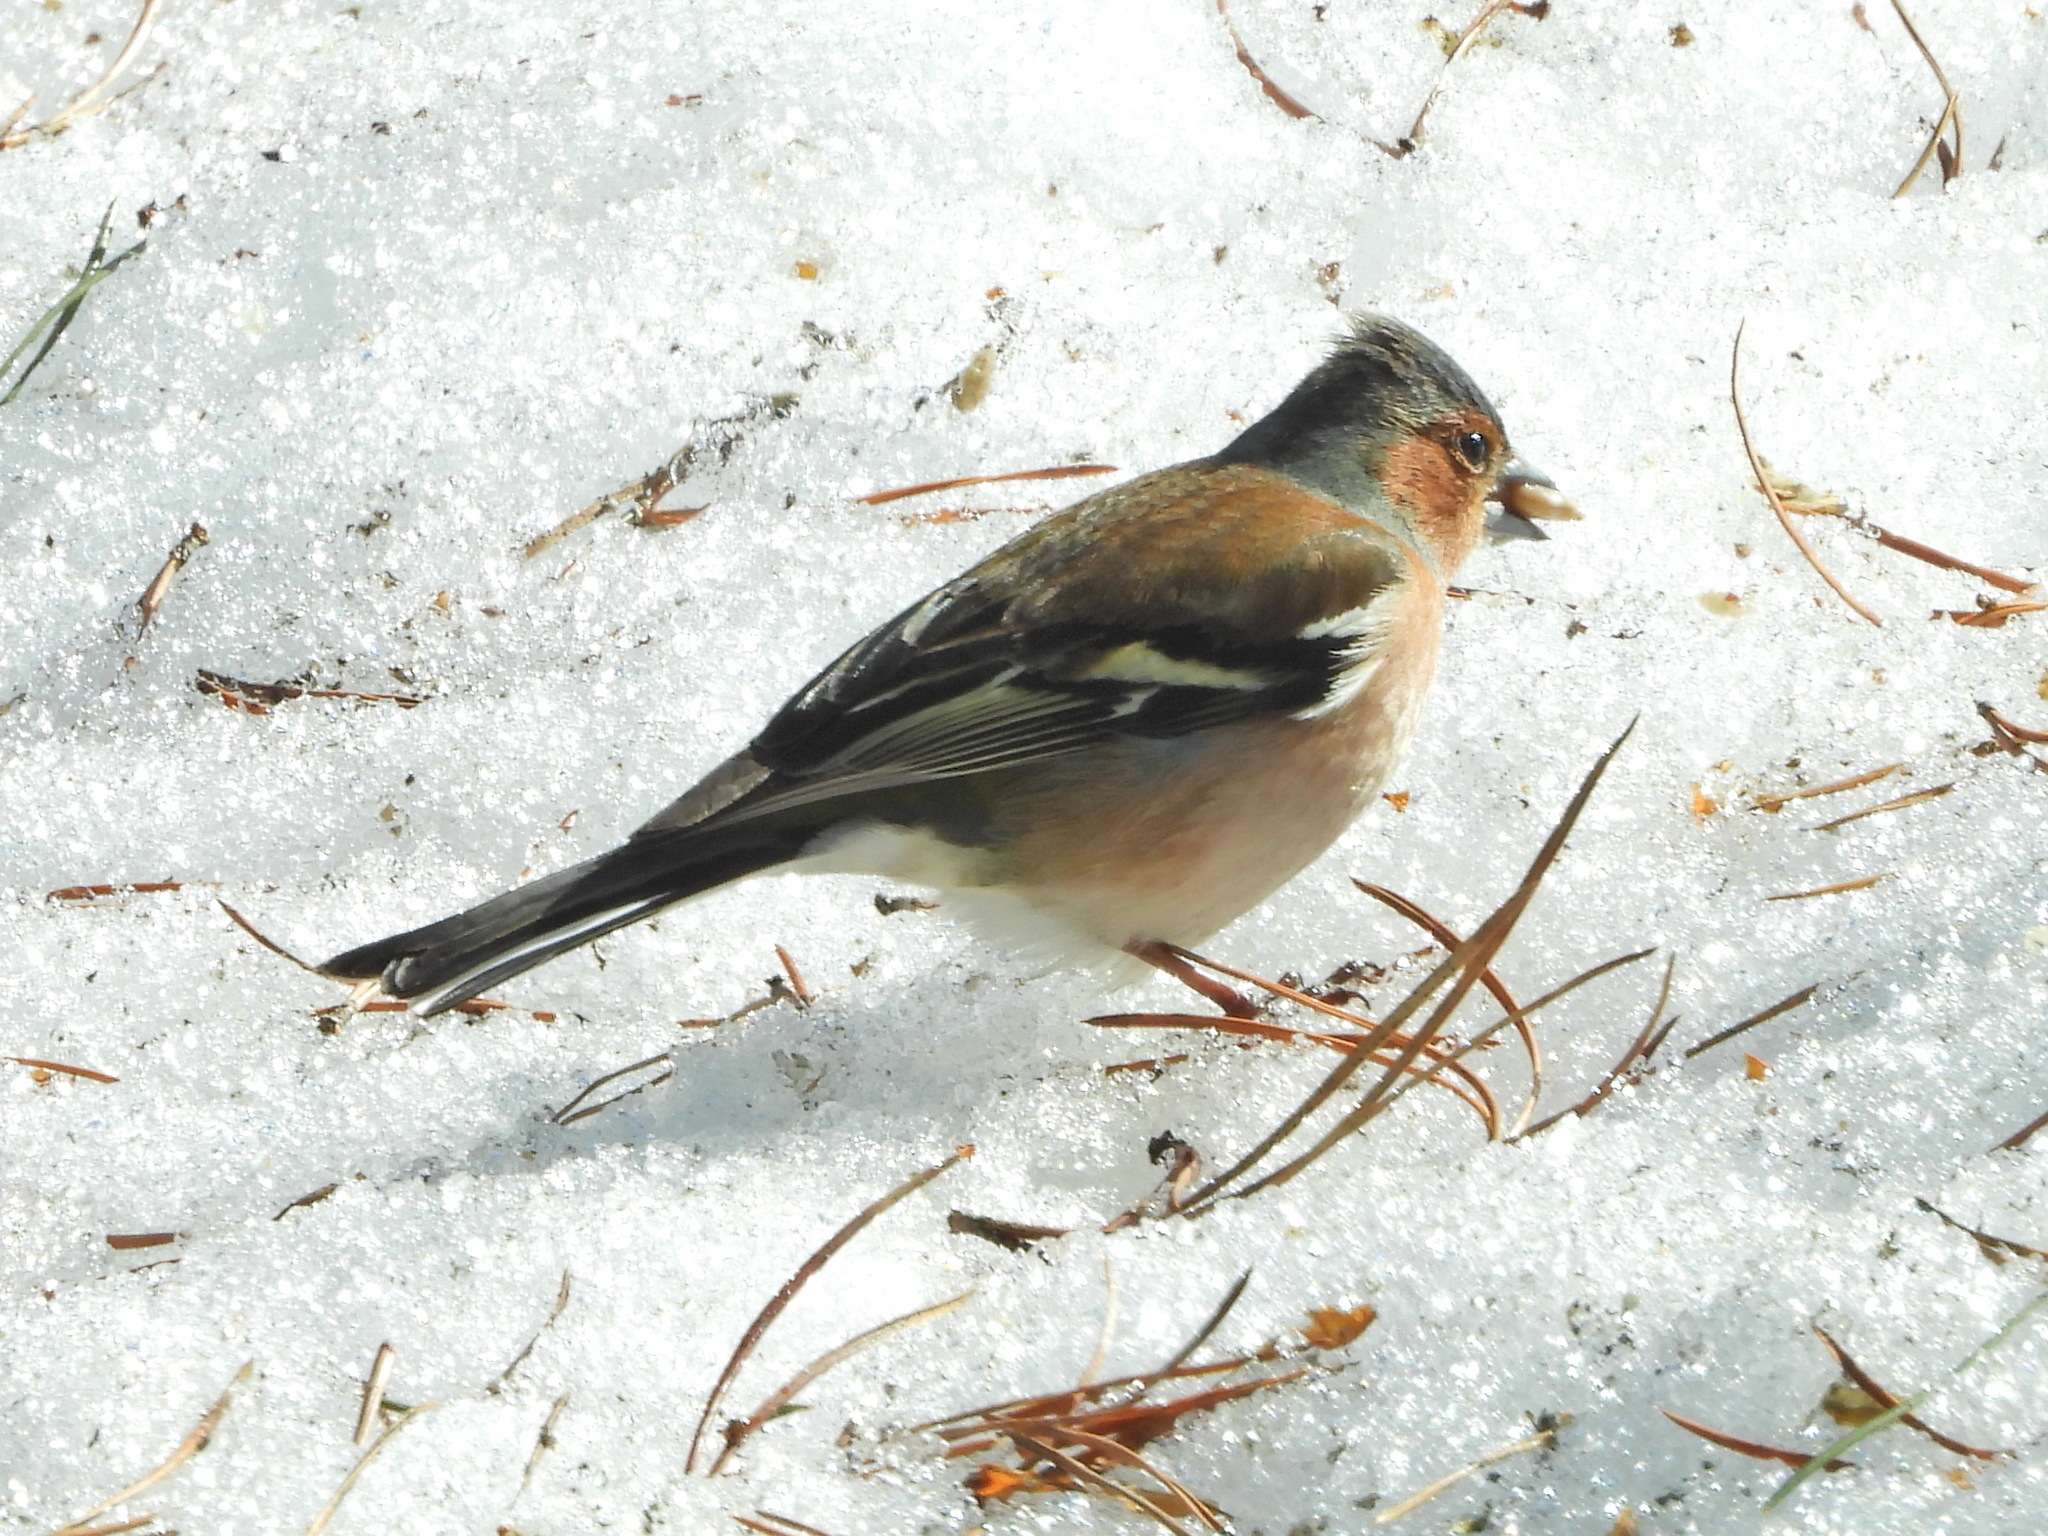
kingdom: Animalia
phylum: Chordata
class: Aves
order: Passeriformes
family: Fringillidae
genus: Fringilla
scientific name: Fringilla coelebs
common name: Common chaffinch
